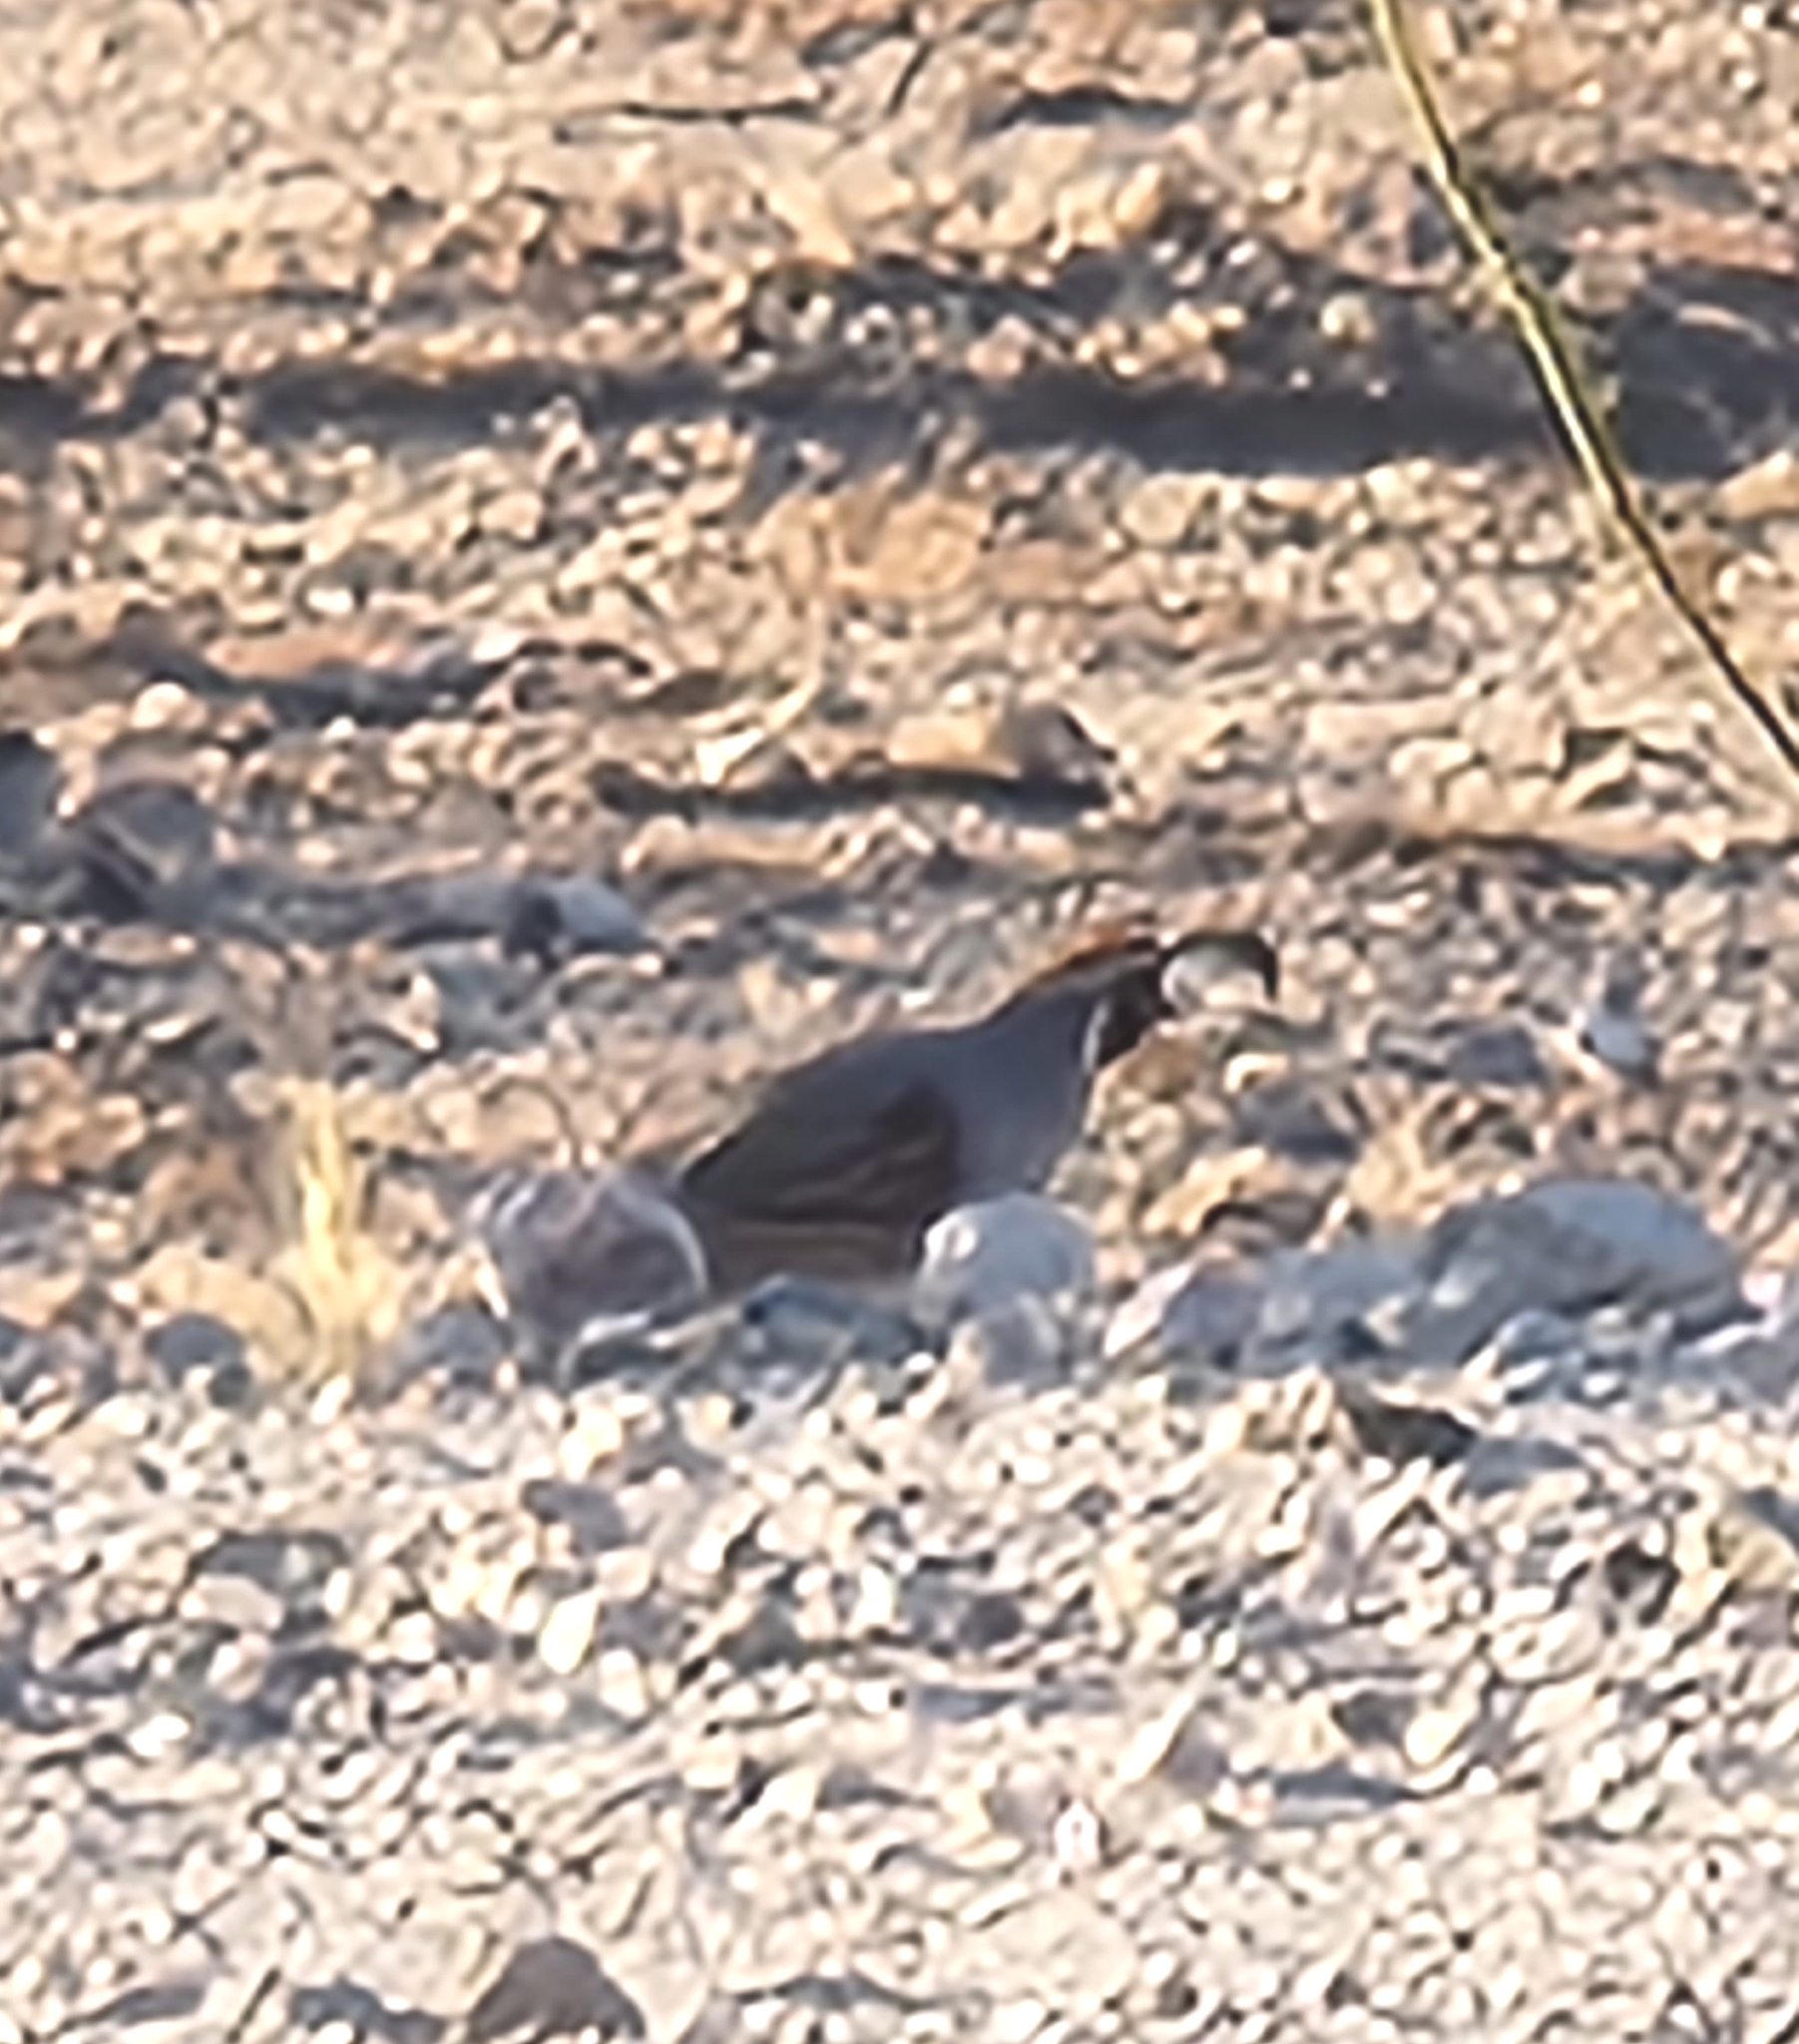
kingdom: Animalia
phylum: Chordata
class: Aves
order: Galliformes
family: Odontophoridae
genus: Callipepla
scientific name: Callipepla gambelii
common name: Gambel's quail
